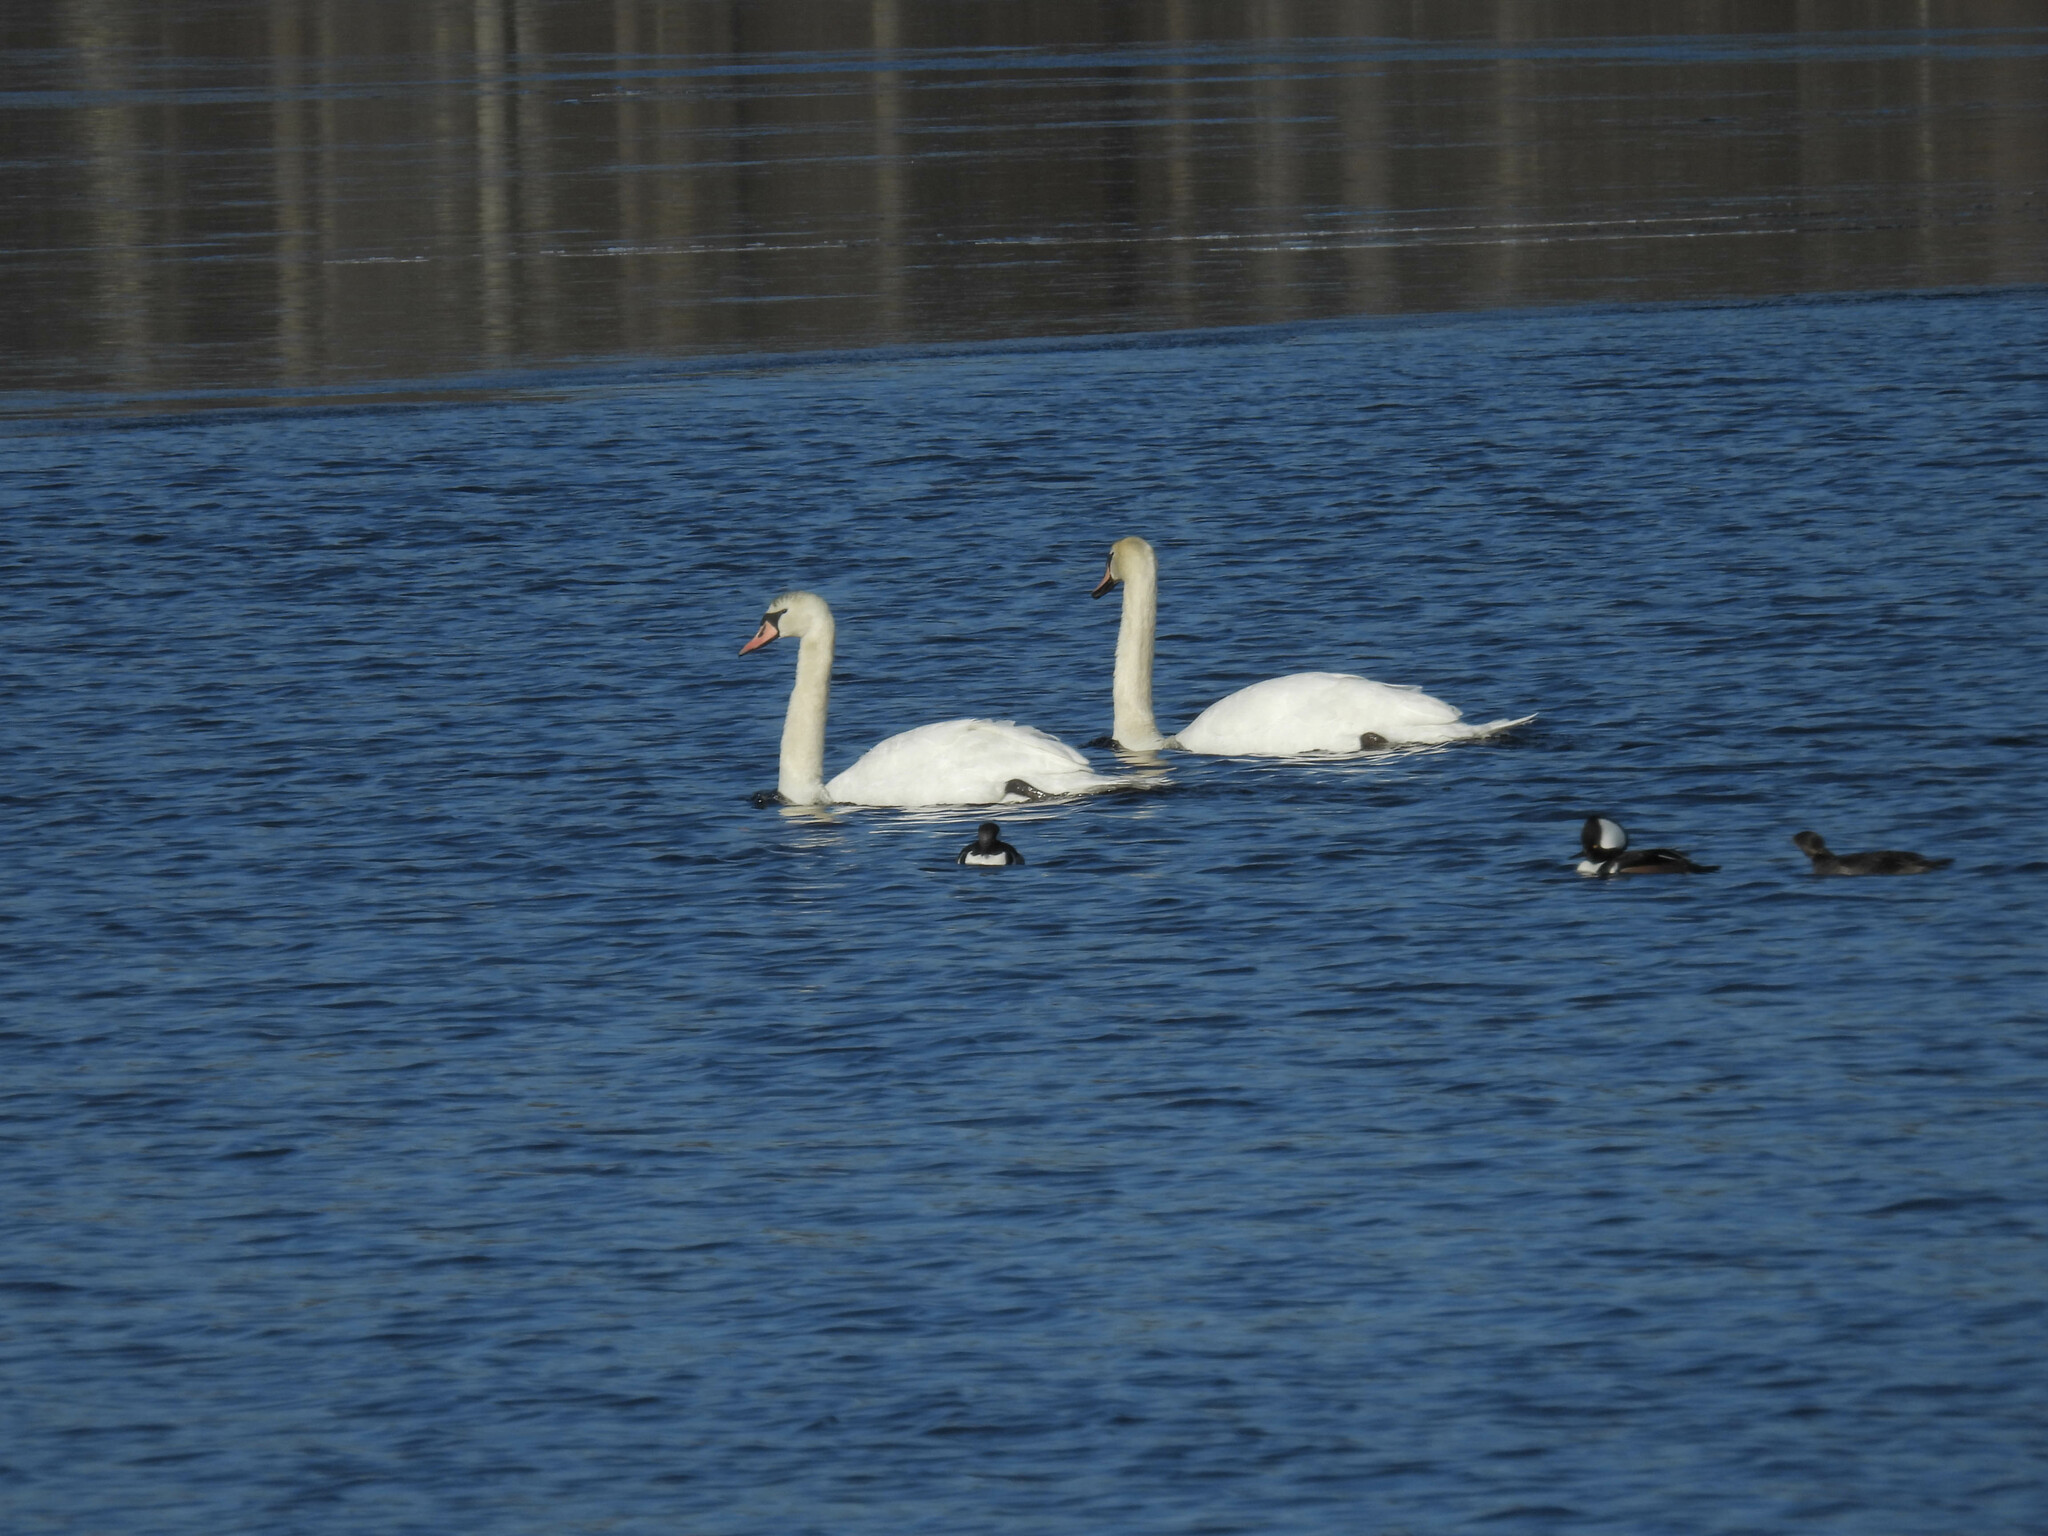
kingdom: Animalia
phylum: Chordata
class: Aves
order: Anseriformes
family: Anatidae
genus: Cygnus
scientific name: Cygnus olor
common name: Mute swan
